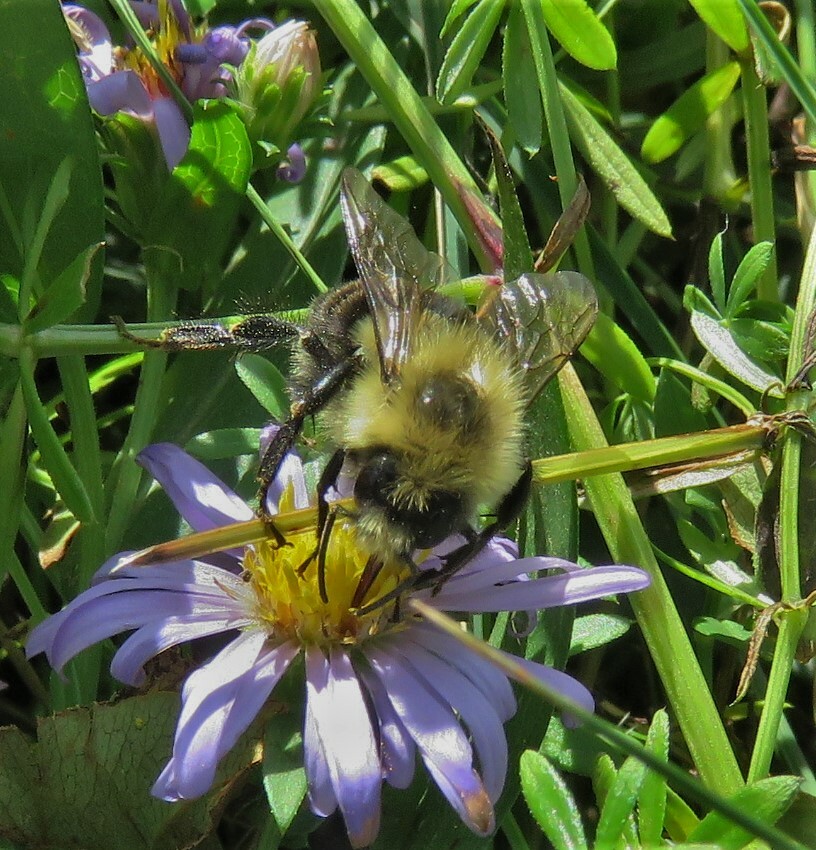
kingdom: Animalia
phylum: Arthropoda
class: Insecta
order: Hymenoptera
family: Apidae
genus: Bombus
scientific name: Bombus impatiens
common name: Common eastern bumble bee
